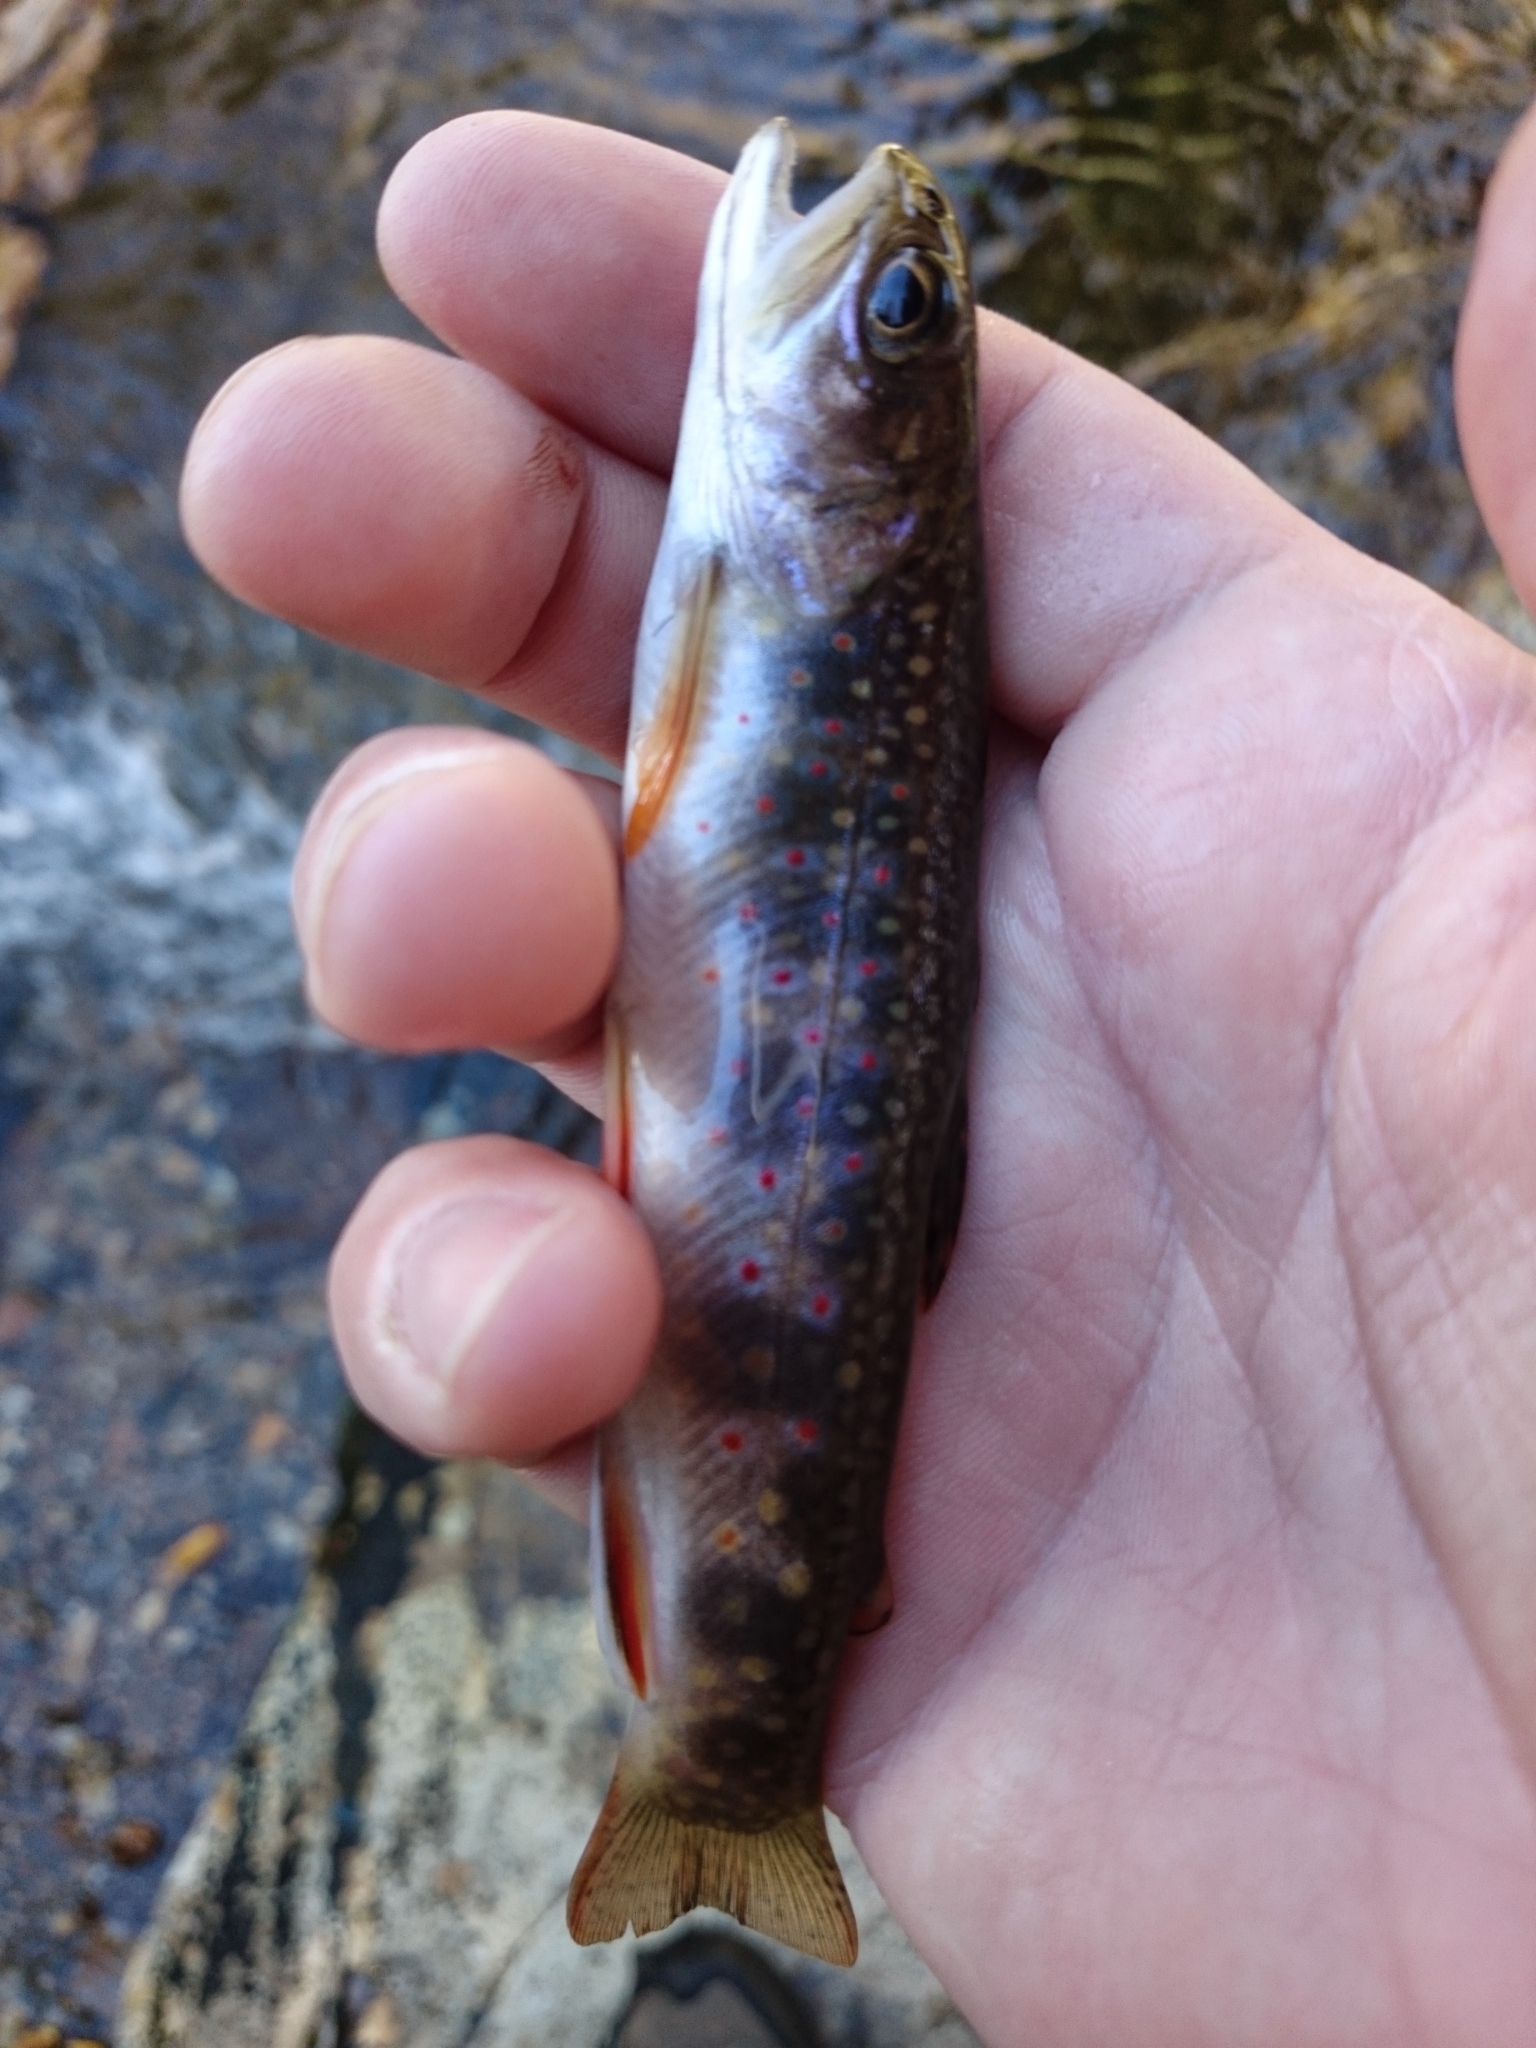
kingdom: Animalia
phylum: Chordata
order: Salmoniformes
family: Salmonidae
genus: Salvelinus
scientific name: Salvelinus fontinalis
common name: Brook trout
